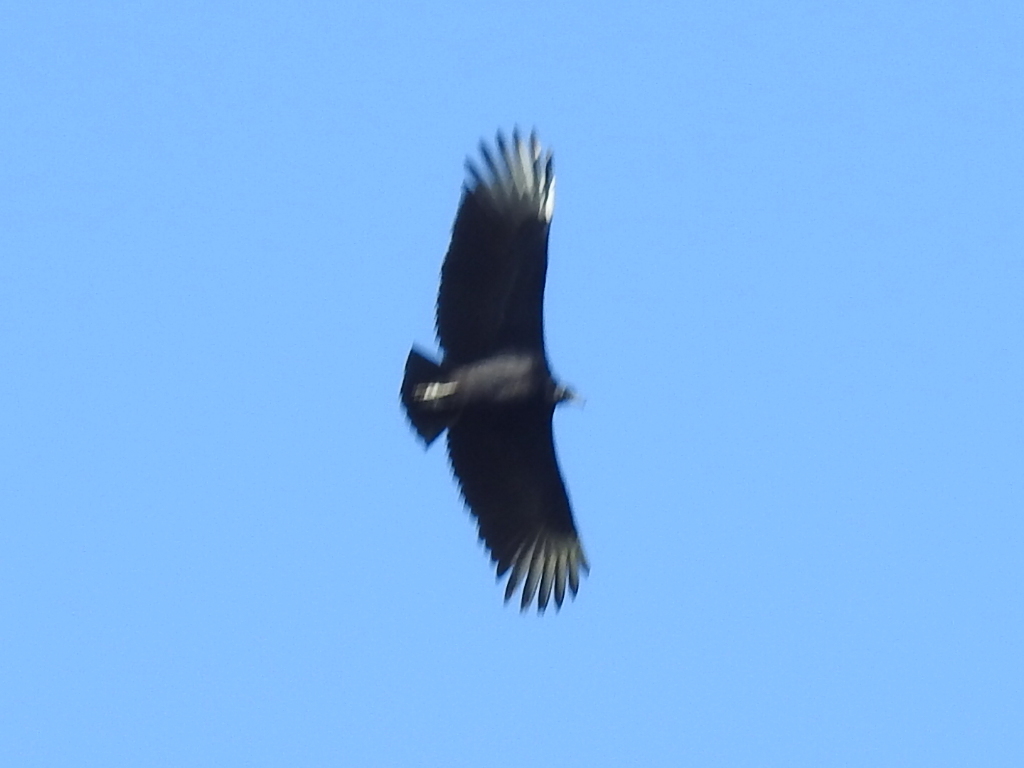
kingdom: Animalia
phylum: Chordata
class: Aves
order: Accipitriformes
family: Cathartidae
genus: Coragyps
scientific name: Coragyps atratus
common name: Black vulture
